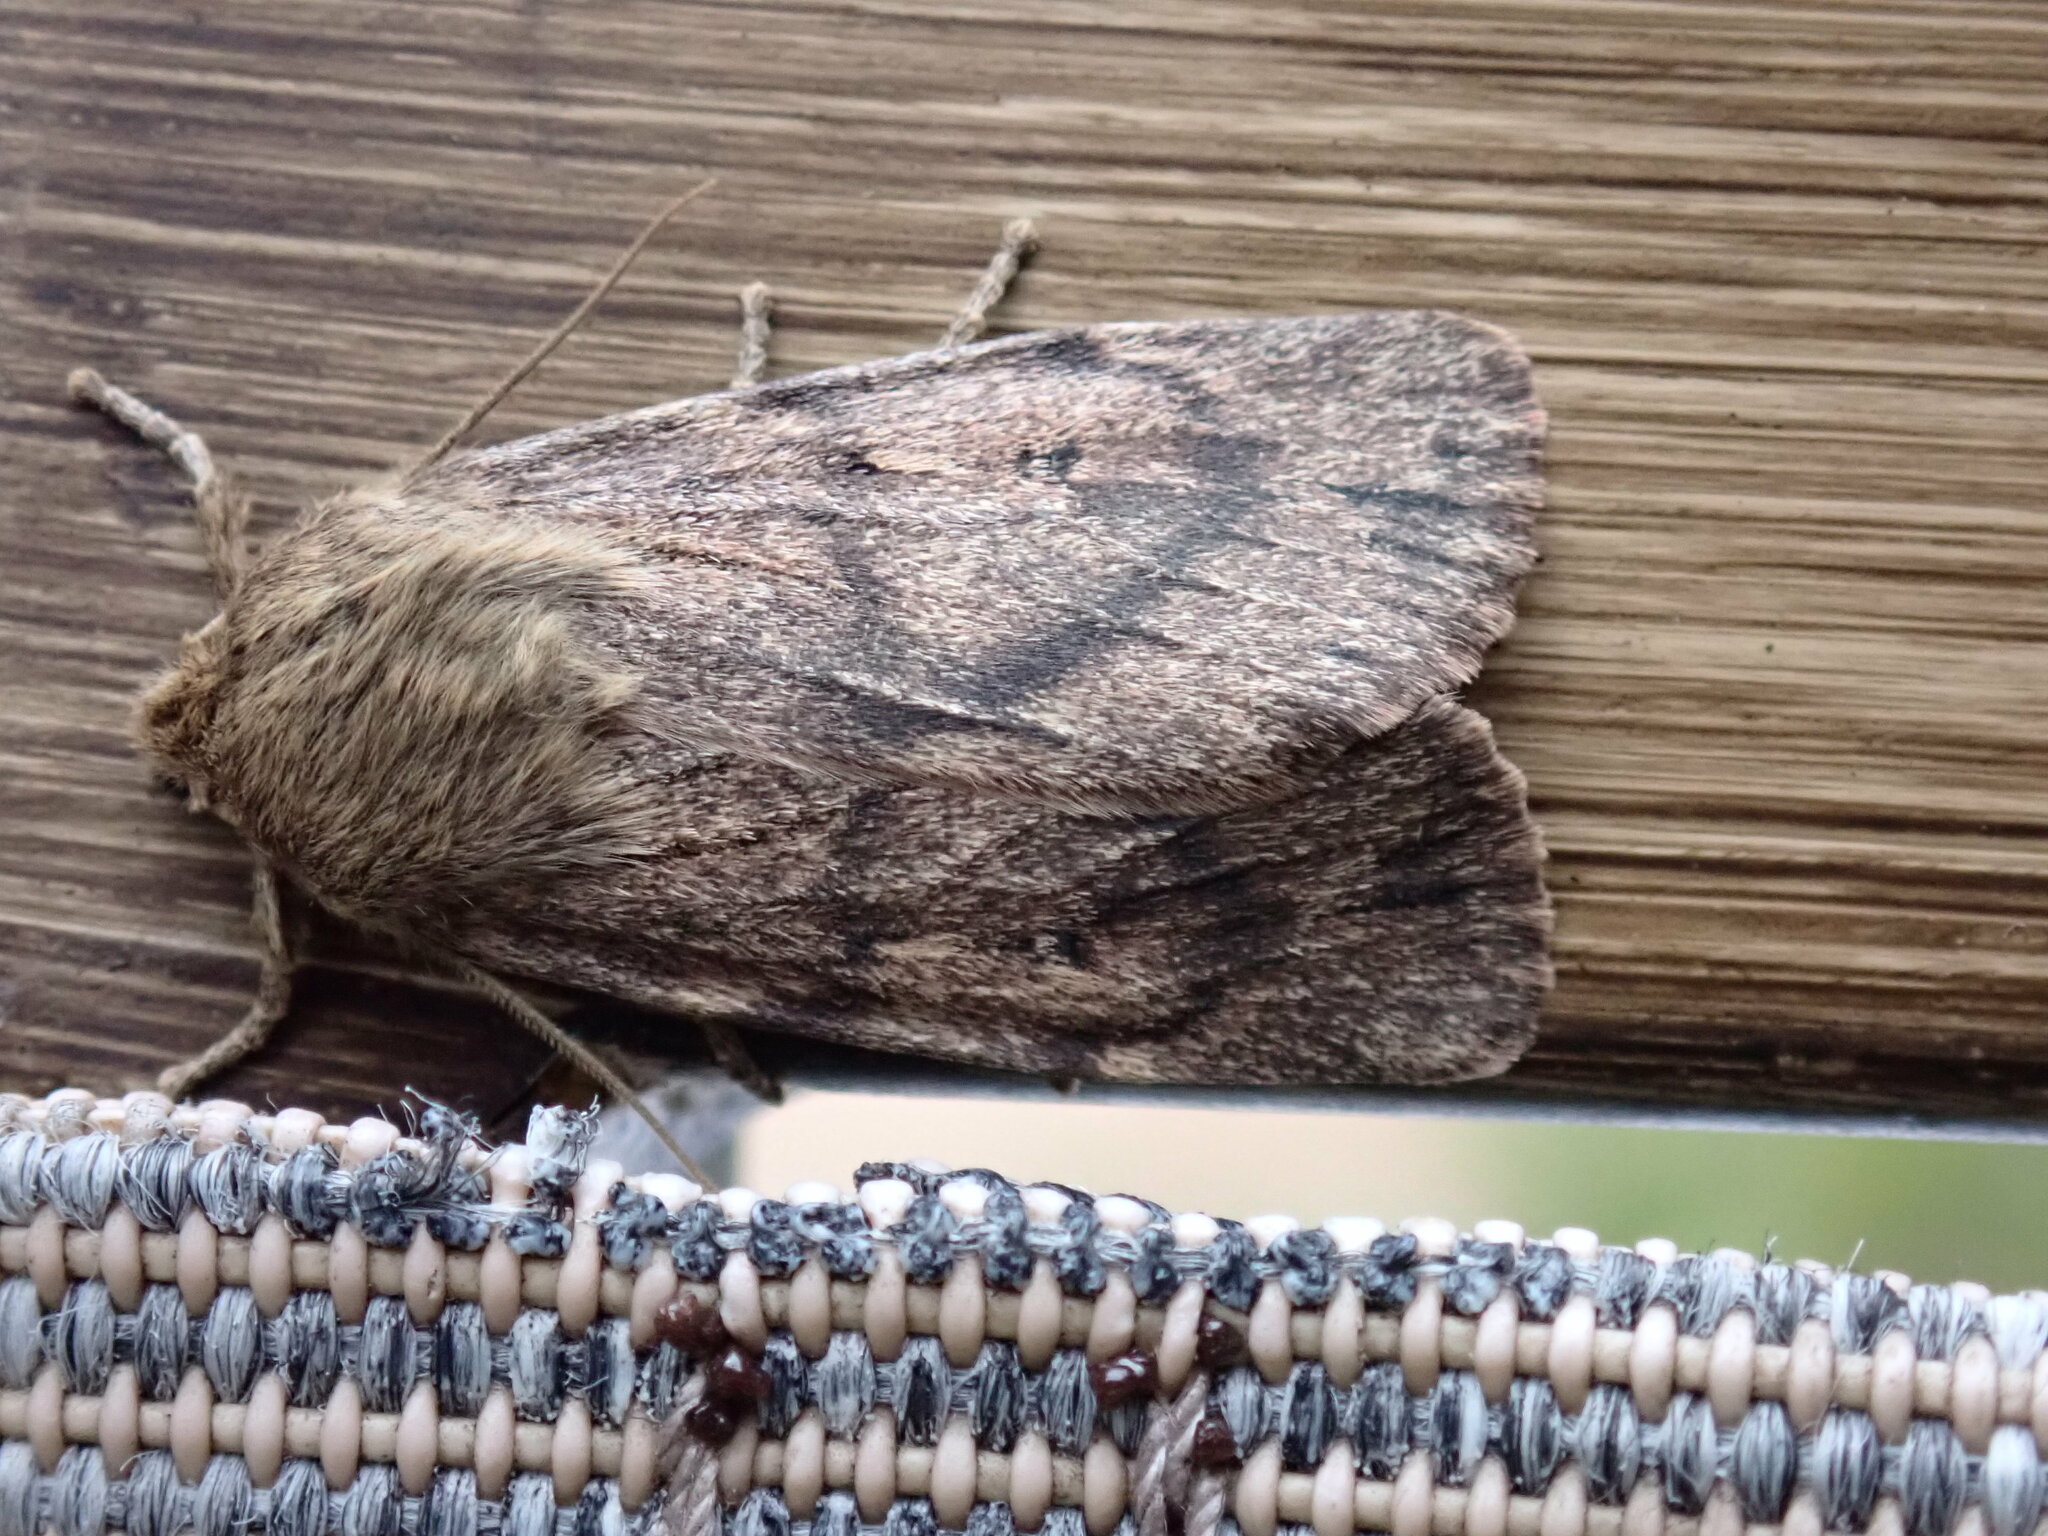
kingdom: Animalia
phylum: Arthropoda
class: Insecta
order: Lepidoptera
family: Noctuidae
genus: Ufeus
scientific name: Ufeus satyricus
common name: Brown satyr moth
